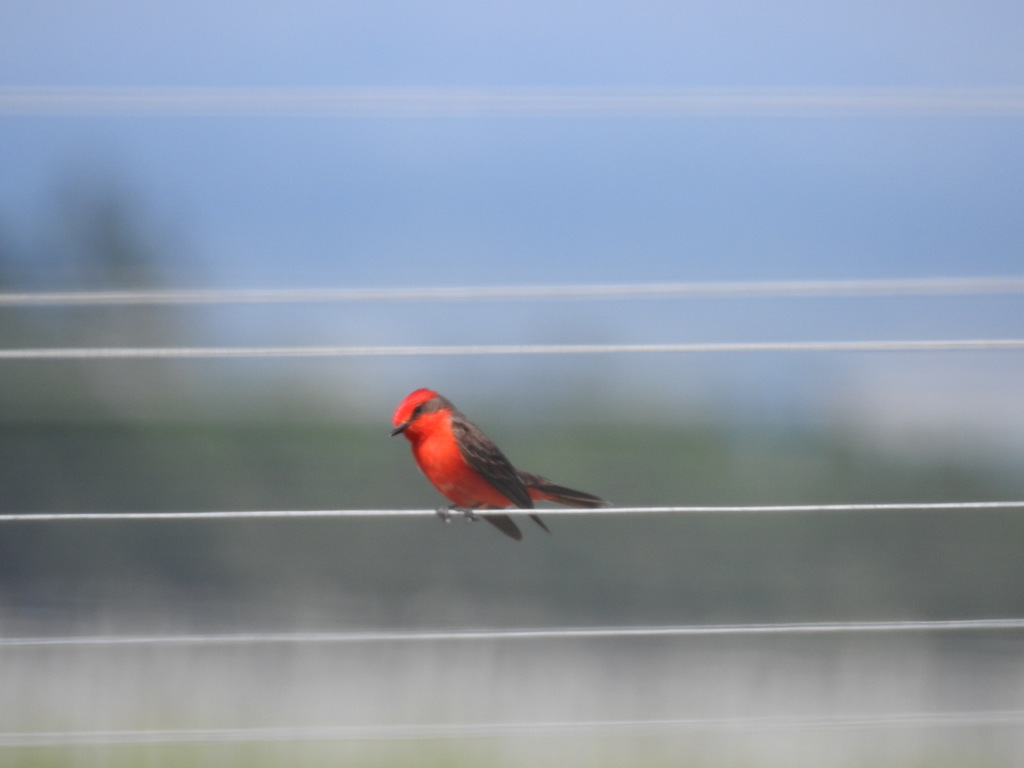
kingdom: Animalia
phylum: Chordata
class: Aves
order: Passeriformes
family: Tyrannidae
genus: Pyrocephalus
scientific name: Pyrocephalus rubinus
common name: Vermilion flycatcher
